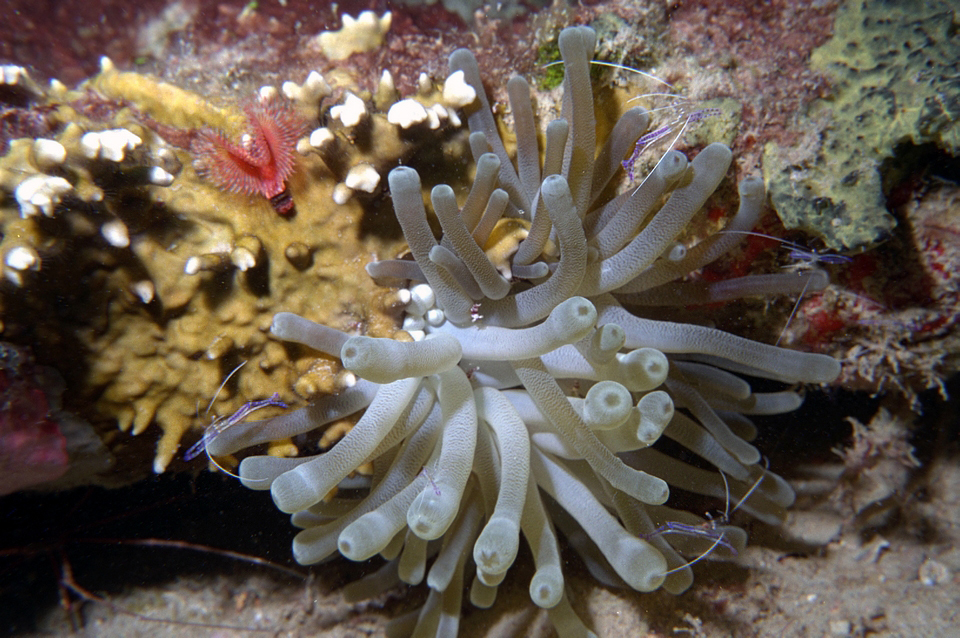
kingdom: Animalia
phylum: Arthropoda
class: Malacostraca
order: Decapoda
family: Palaemonidae
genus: Ancylomenes
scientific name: Ancylomenes pedersoni
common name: Pederson's cleaning shrimp
